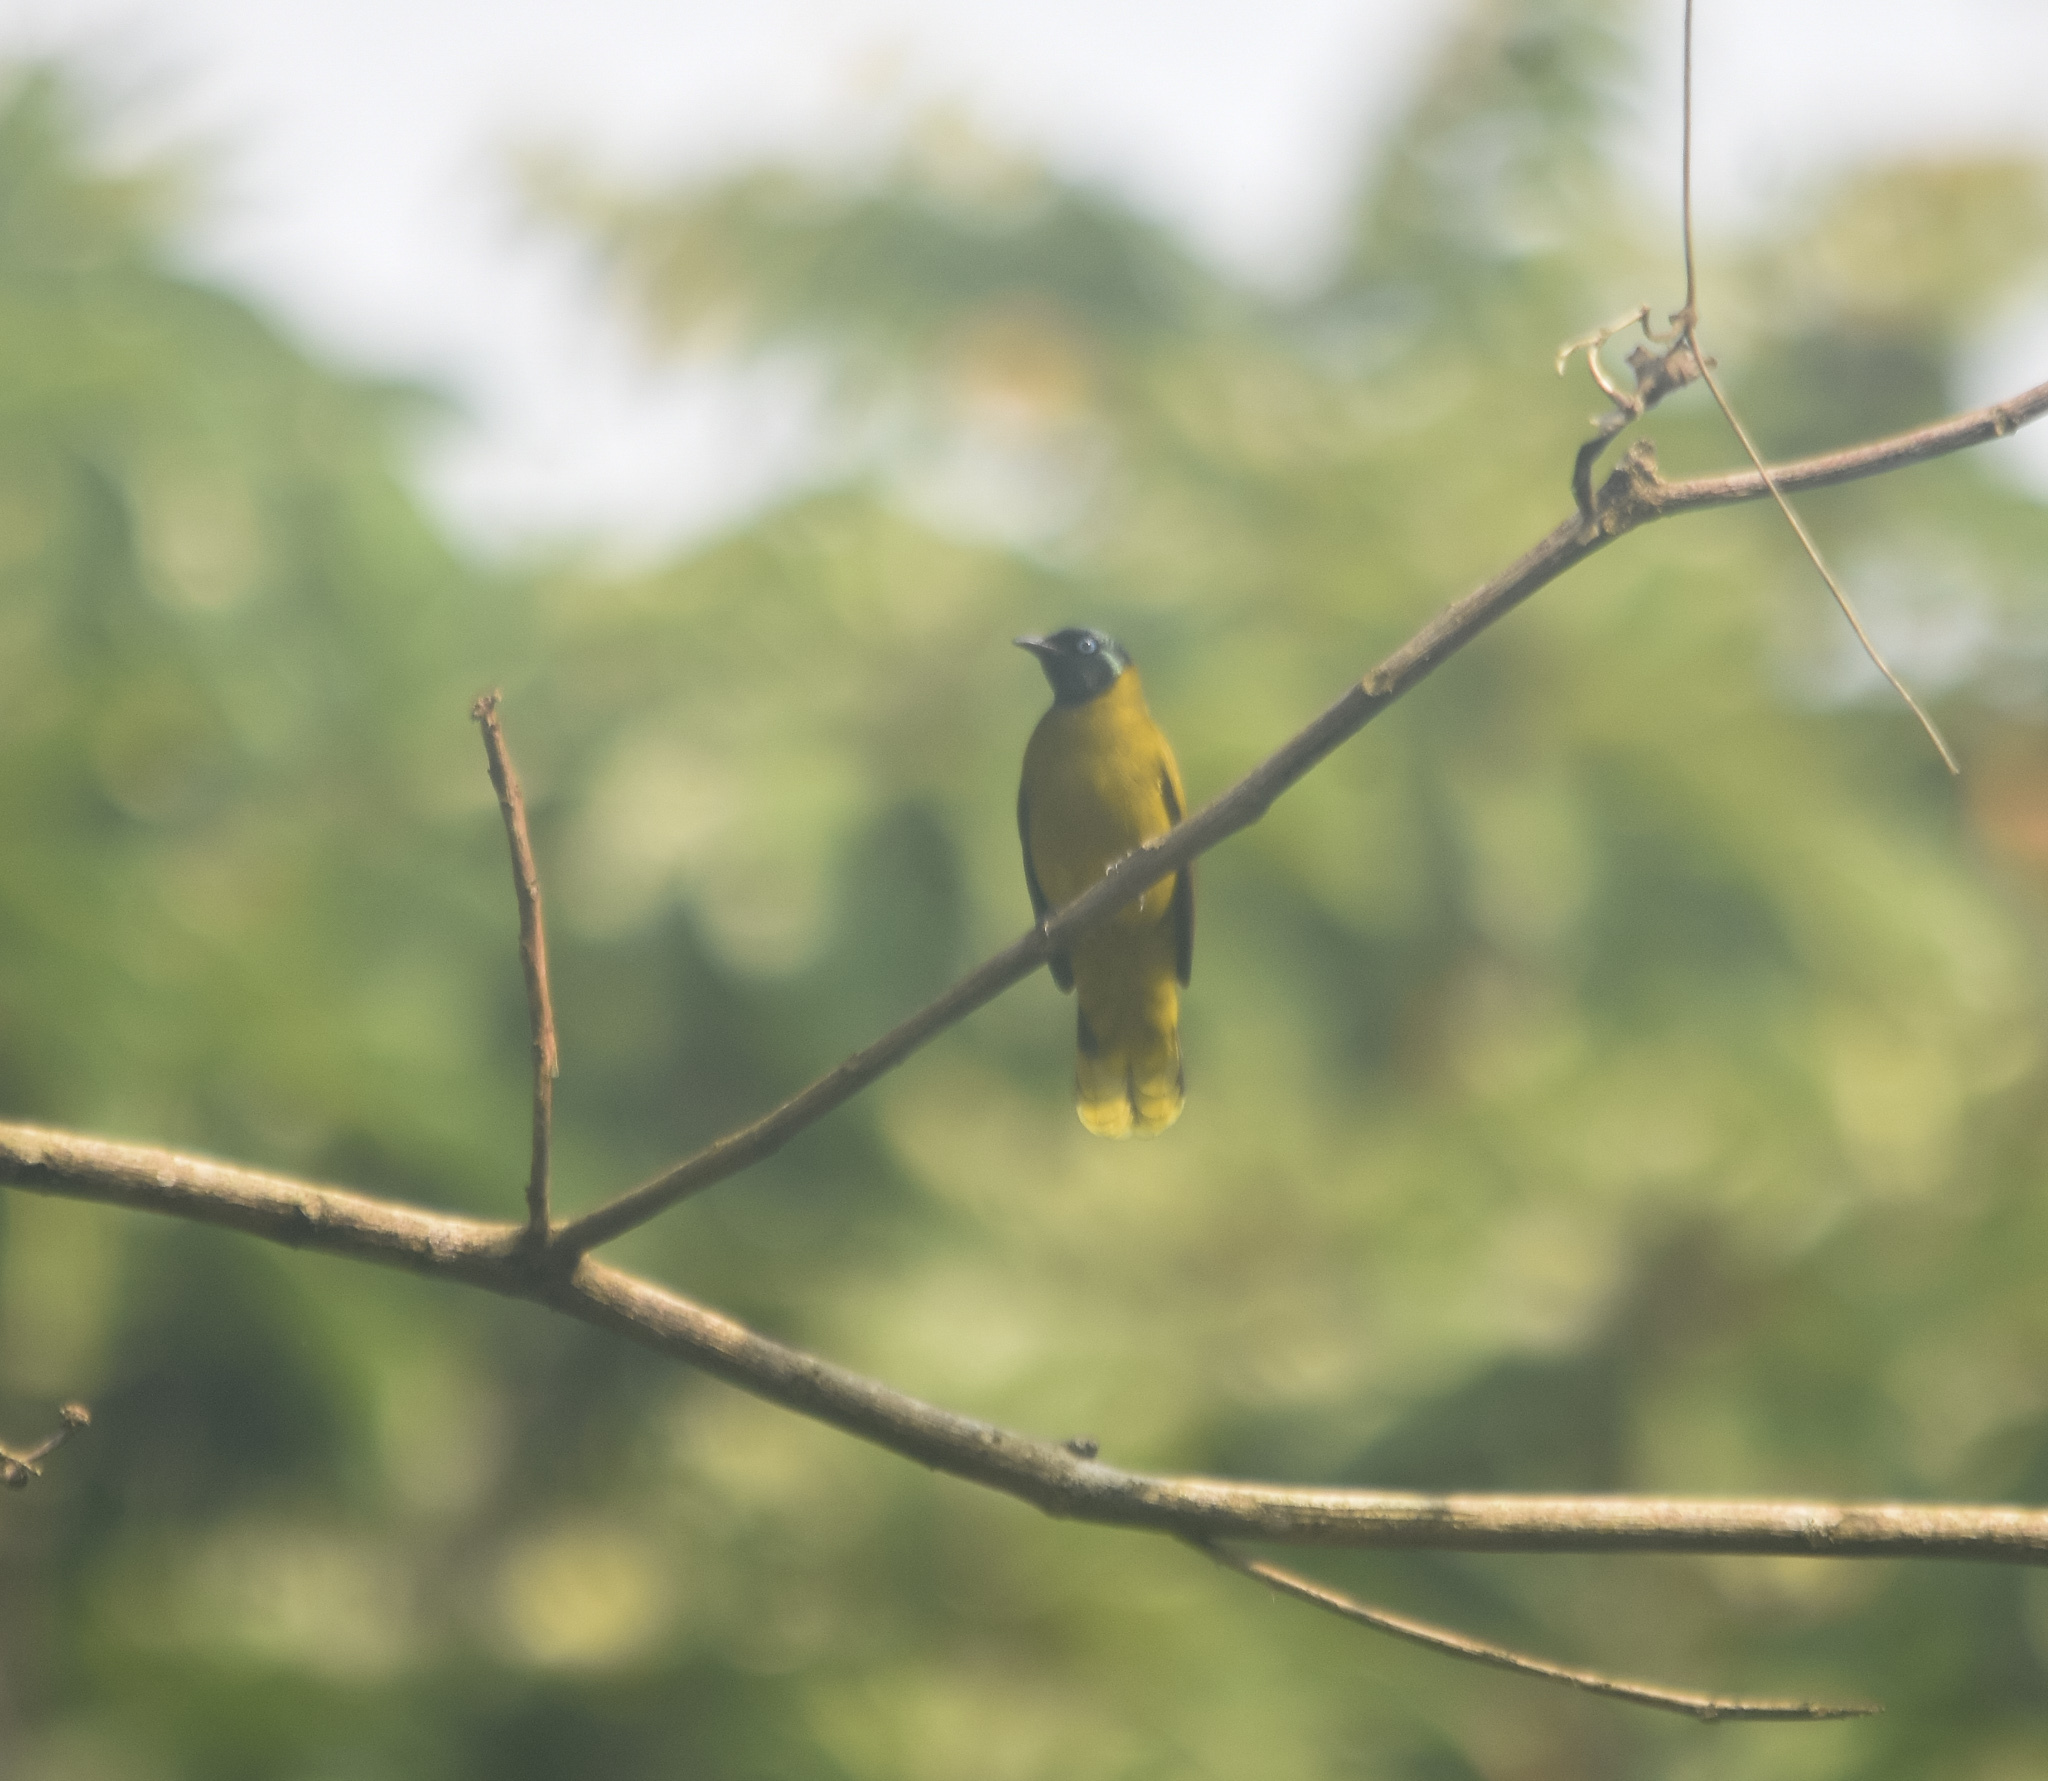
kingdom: Animalia
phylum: Chordata
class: Aves
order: Passeriformes
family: Pycnonotidae
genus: Microtarsus
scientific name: Microtarsus
